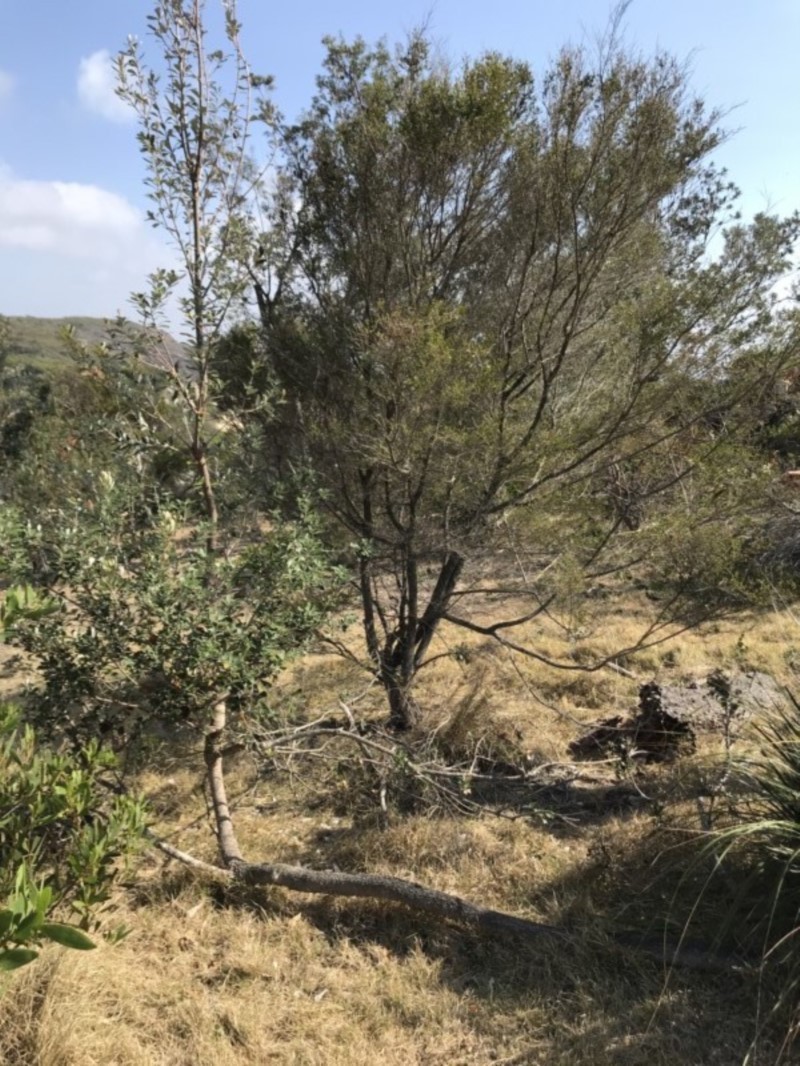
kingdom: Plantae
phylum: Tracheophyta
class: Magnoliopsida
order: Proteales
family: Proteaceae
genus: Banksia
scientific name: Banksia integrifolia
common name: White-honeysuckle
